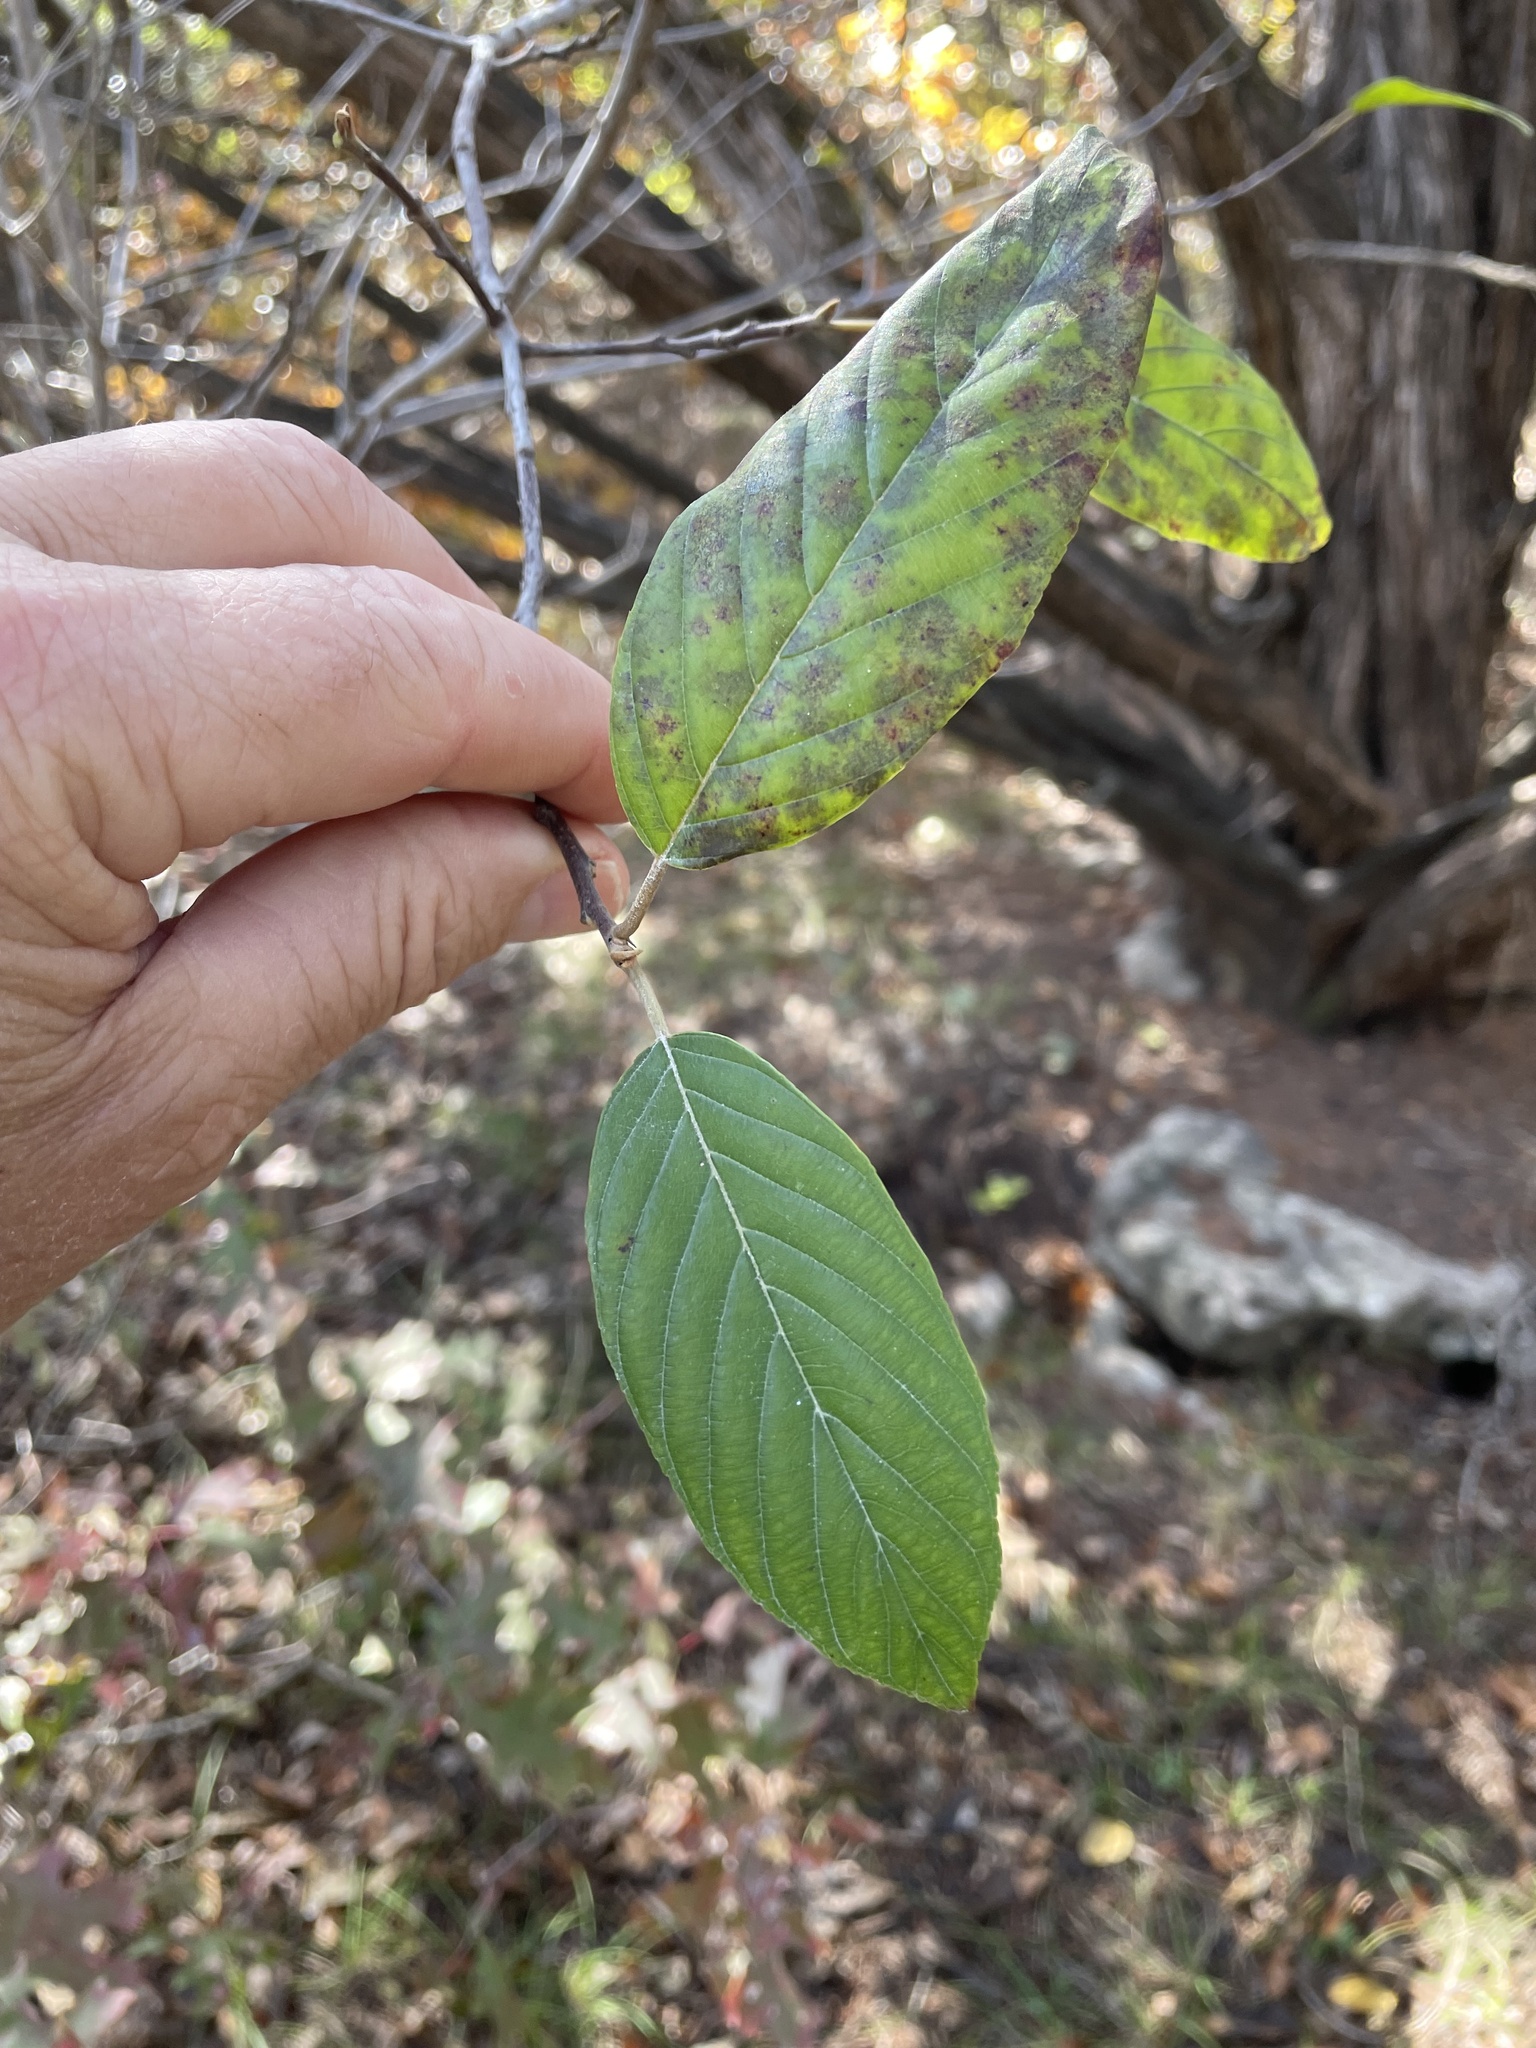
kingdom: Plantae
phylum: Tracheophyta
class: Magnoliopsida
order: Rosales
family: Rhamnaceae
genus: Frangula
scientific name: Frangula caroliniana
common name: Carolina buckthorn
